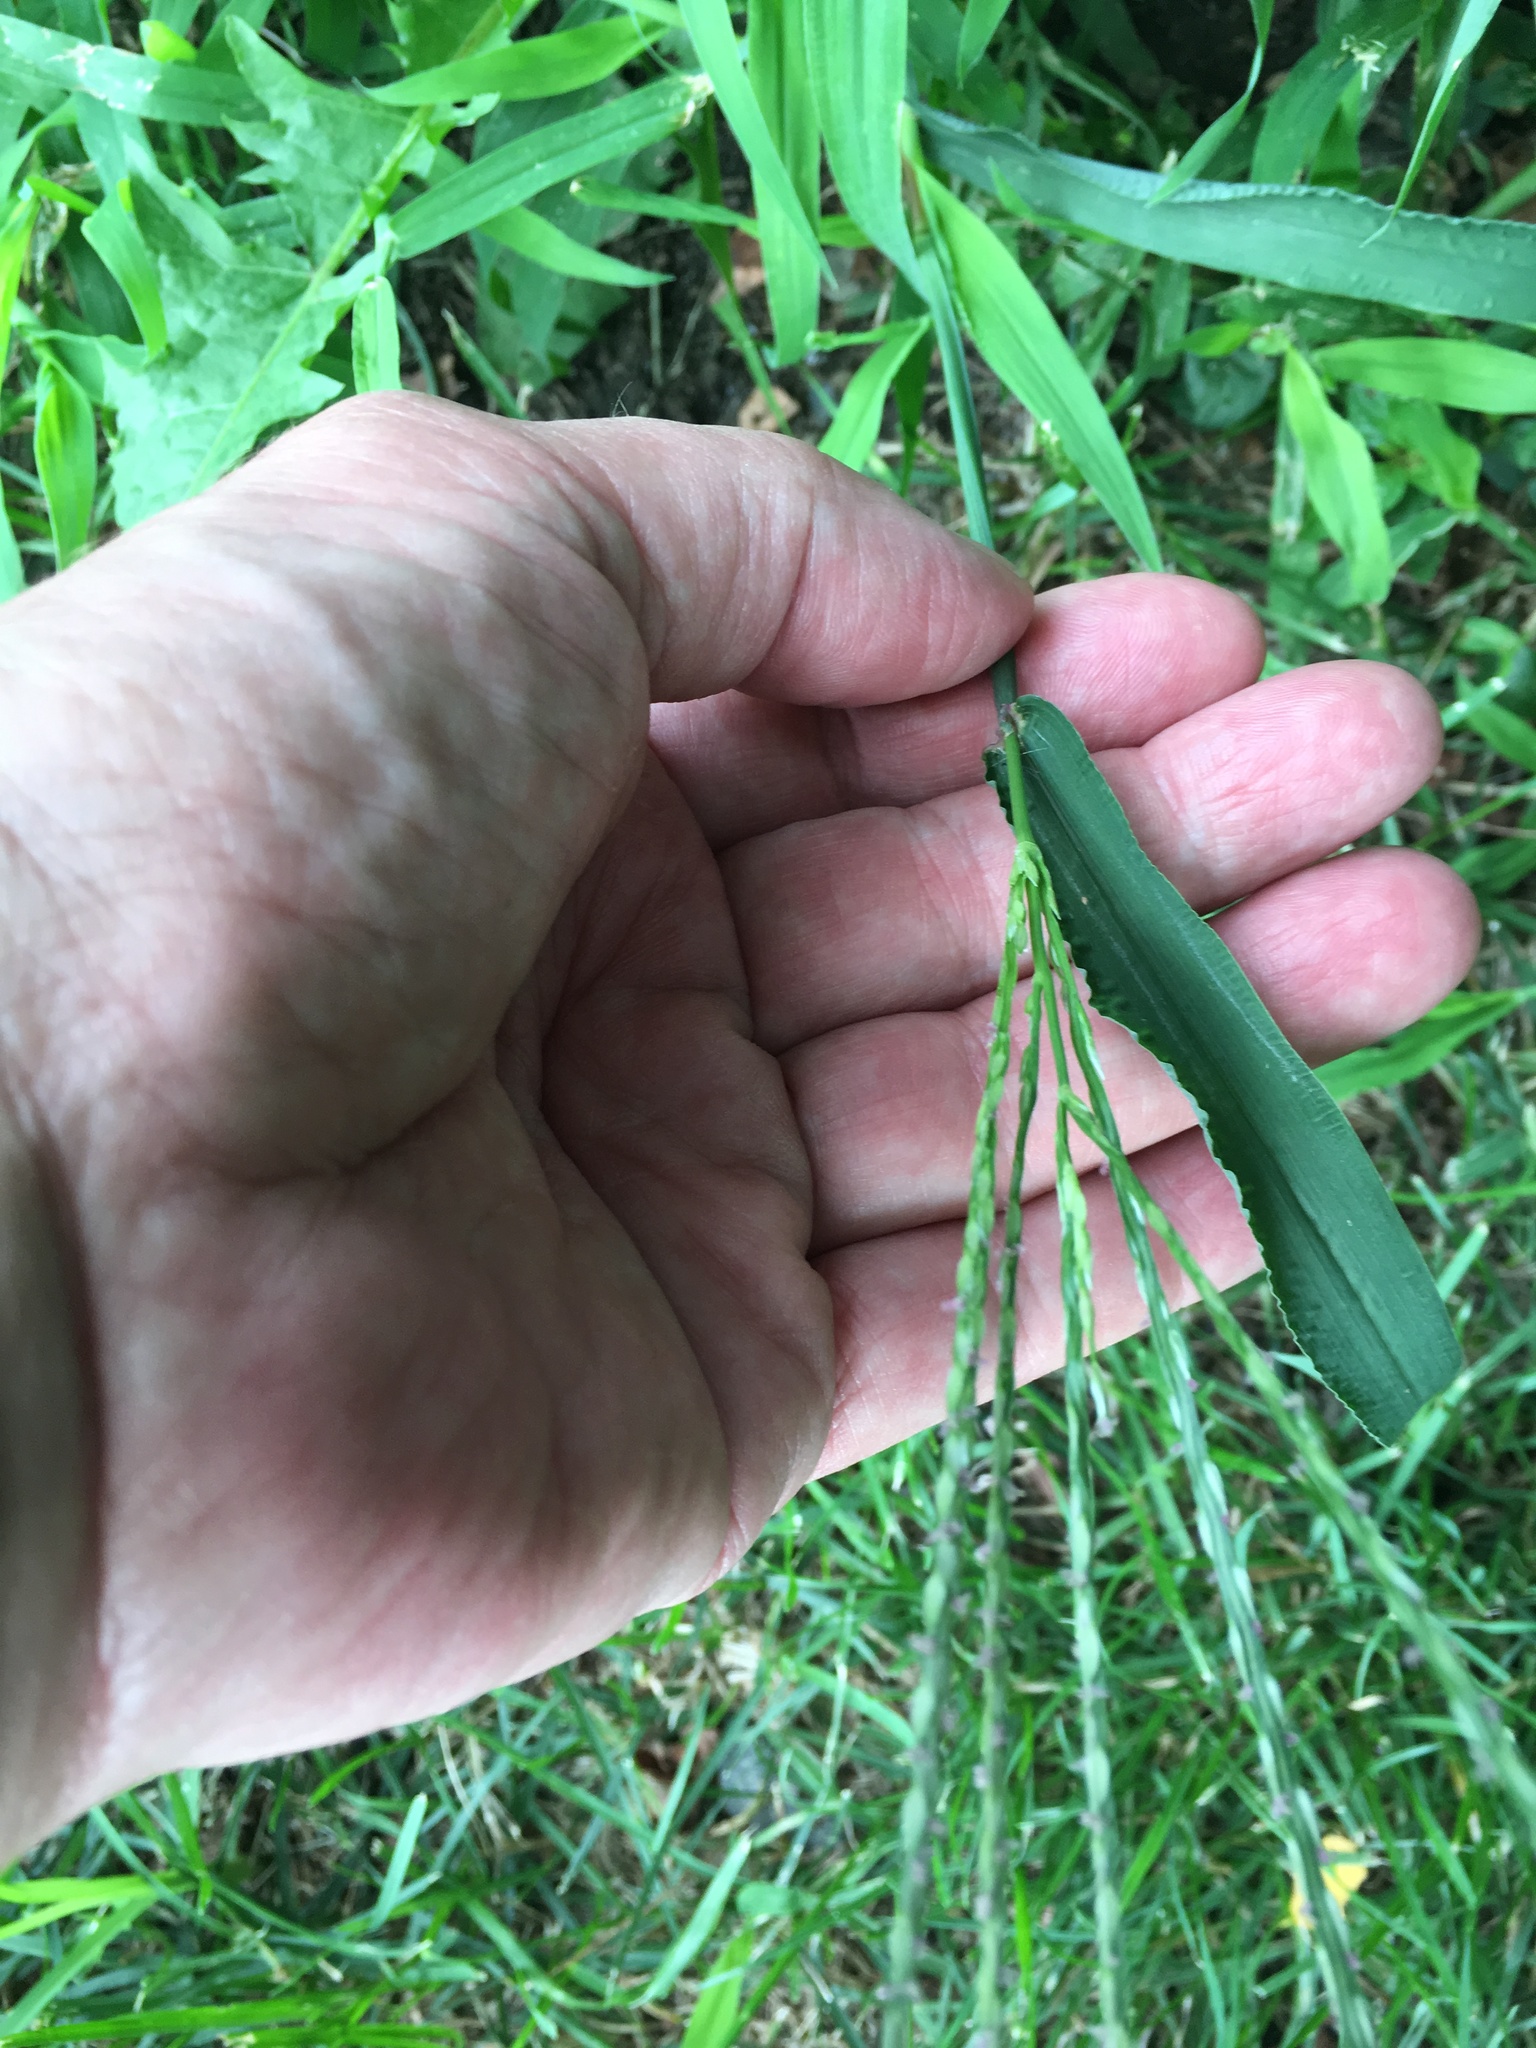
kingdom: Plantae
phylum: Tracheophyta
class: Liliopsida
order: Poales
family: Poaceae
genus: Digitaria
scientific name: Digitaria ischaemum
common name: Smooth crabgrass
